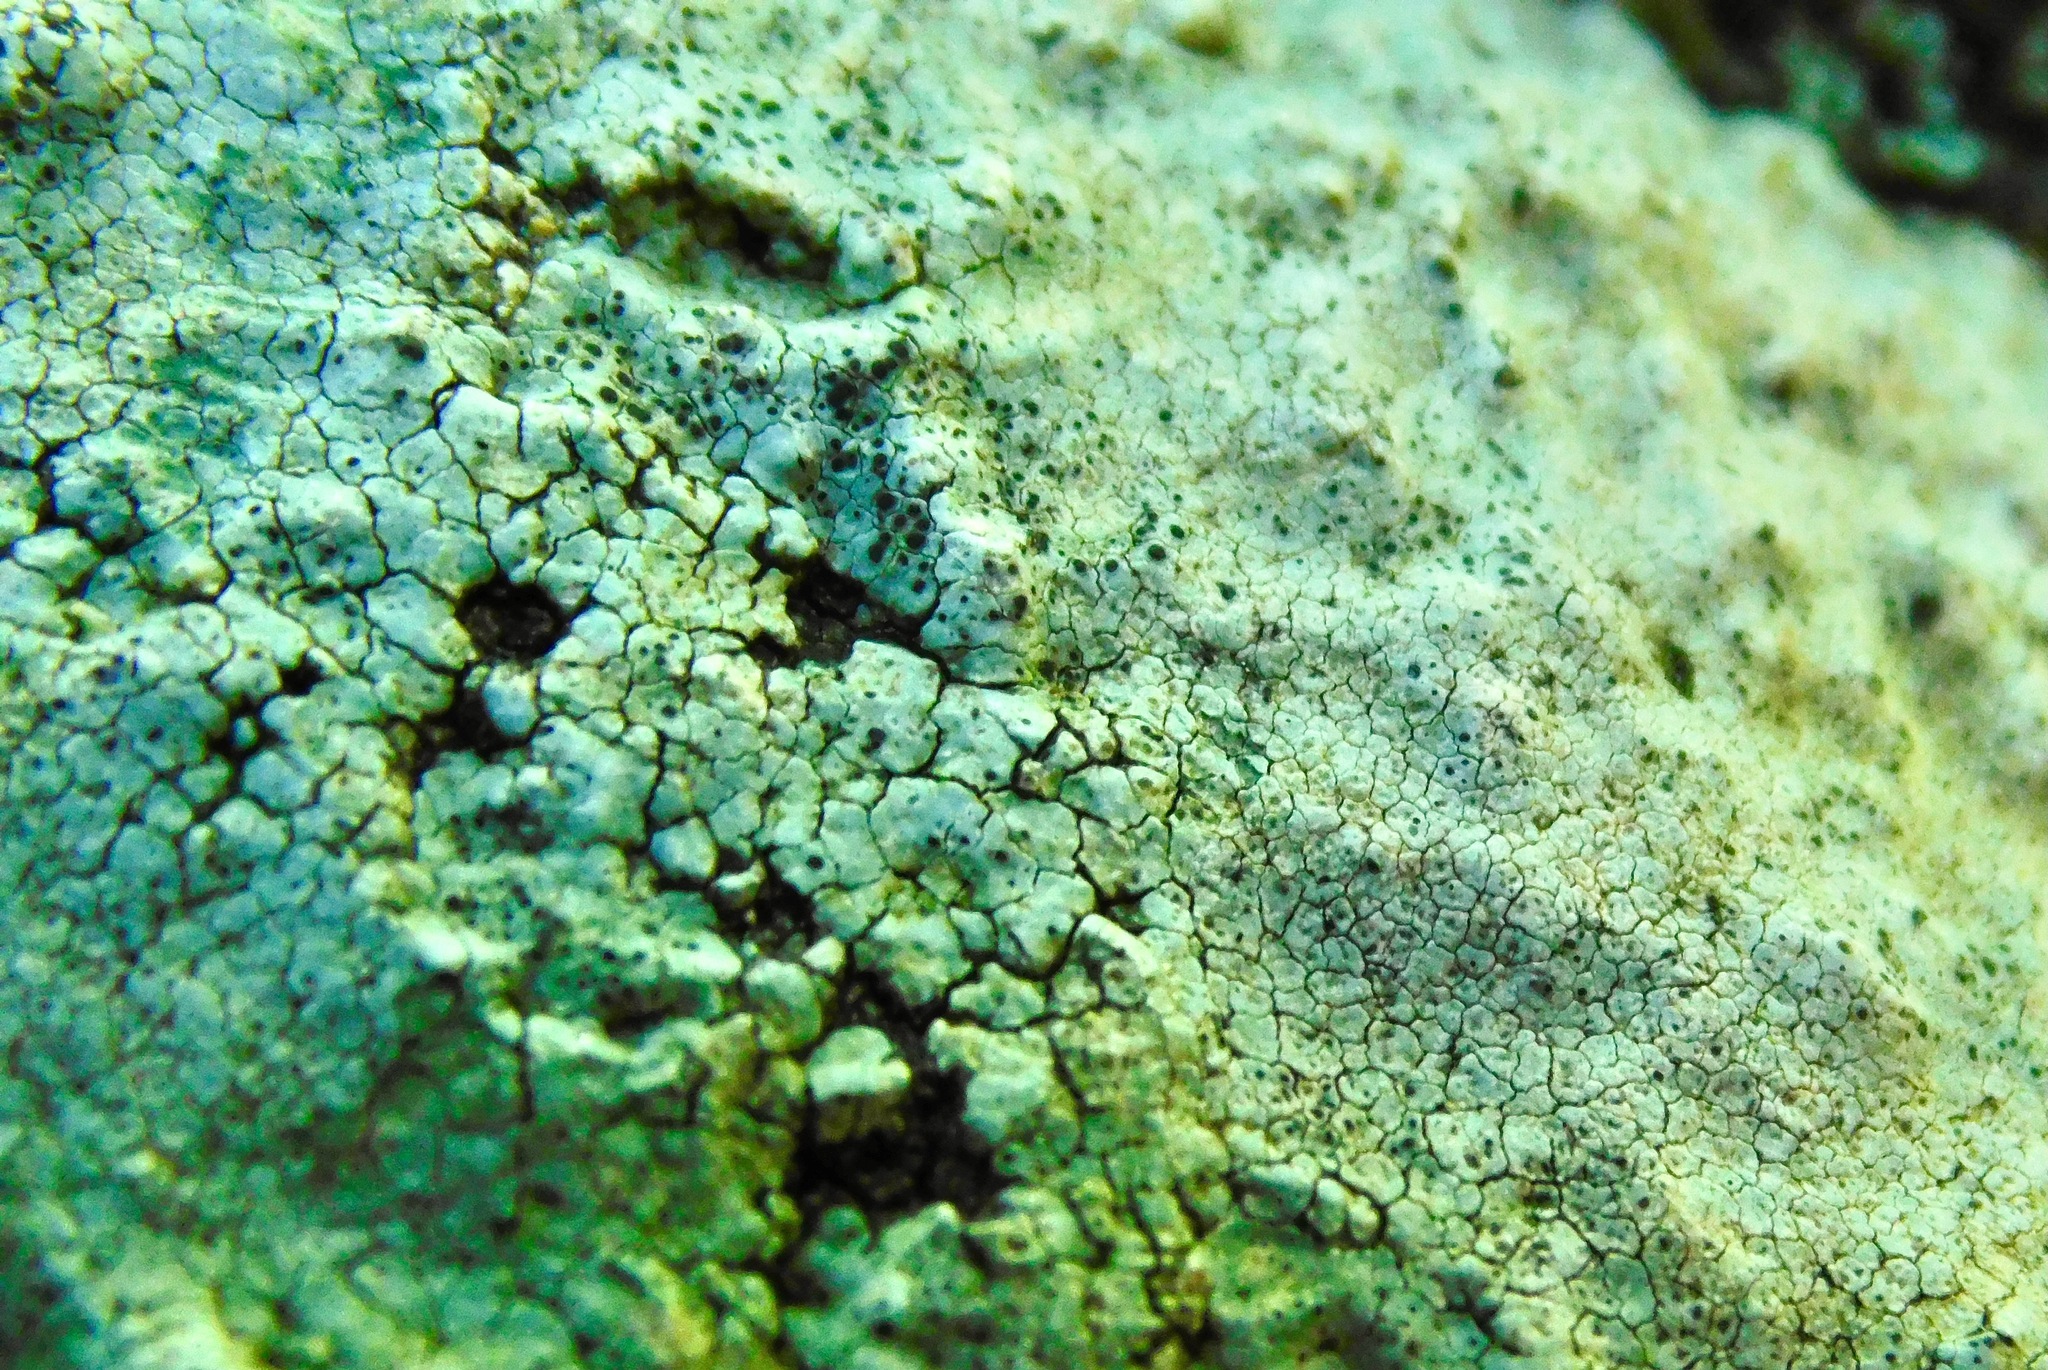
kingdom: Fungi
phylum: Ascomycota
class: Lecanoromycetes
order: Pertusariales
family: Megasporaceae
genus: Aspicilia
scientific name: Aspicilia cinerea
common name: Cinder lichen
